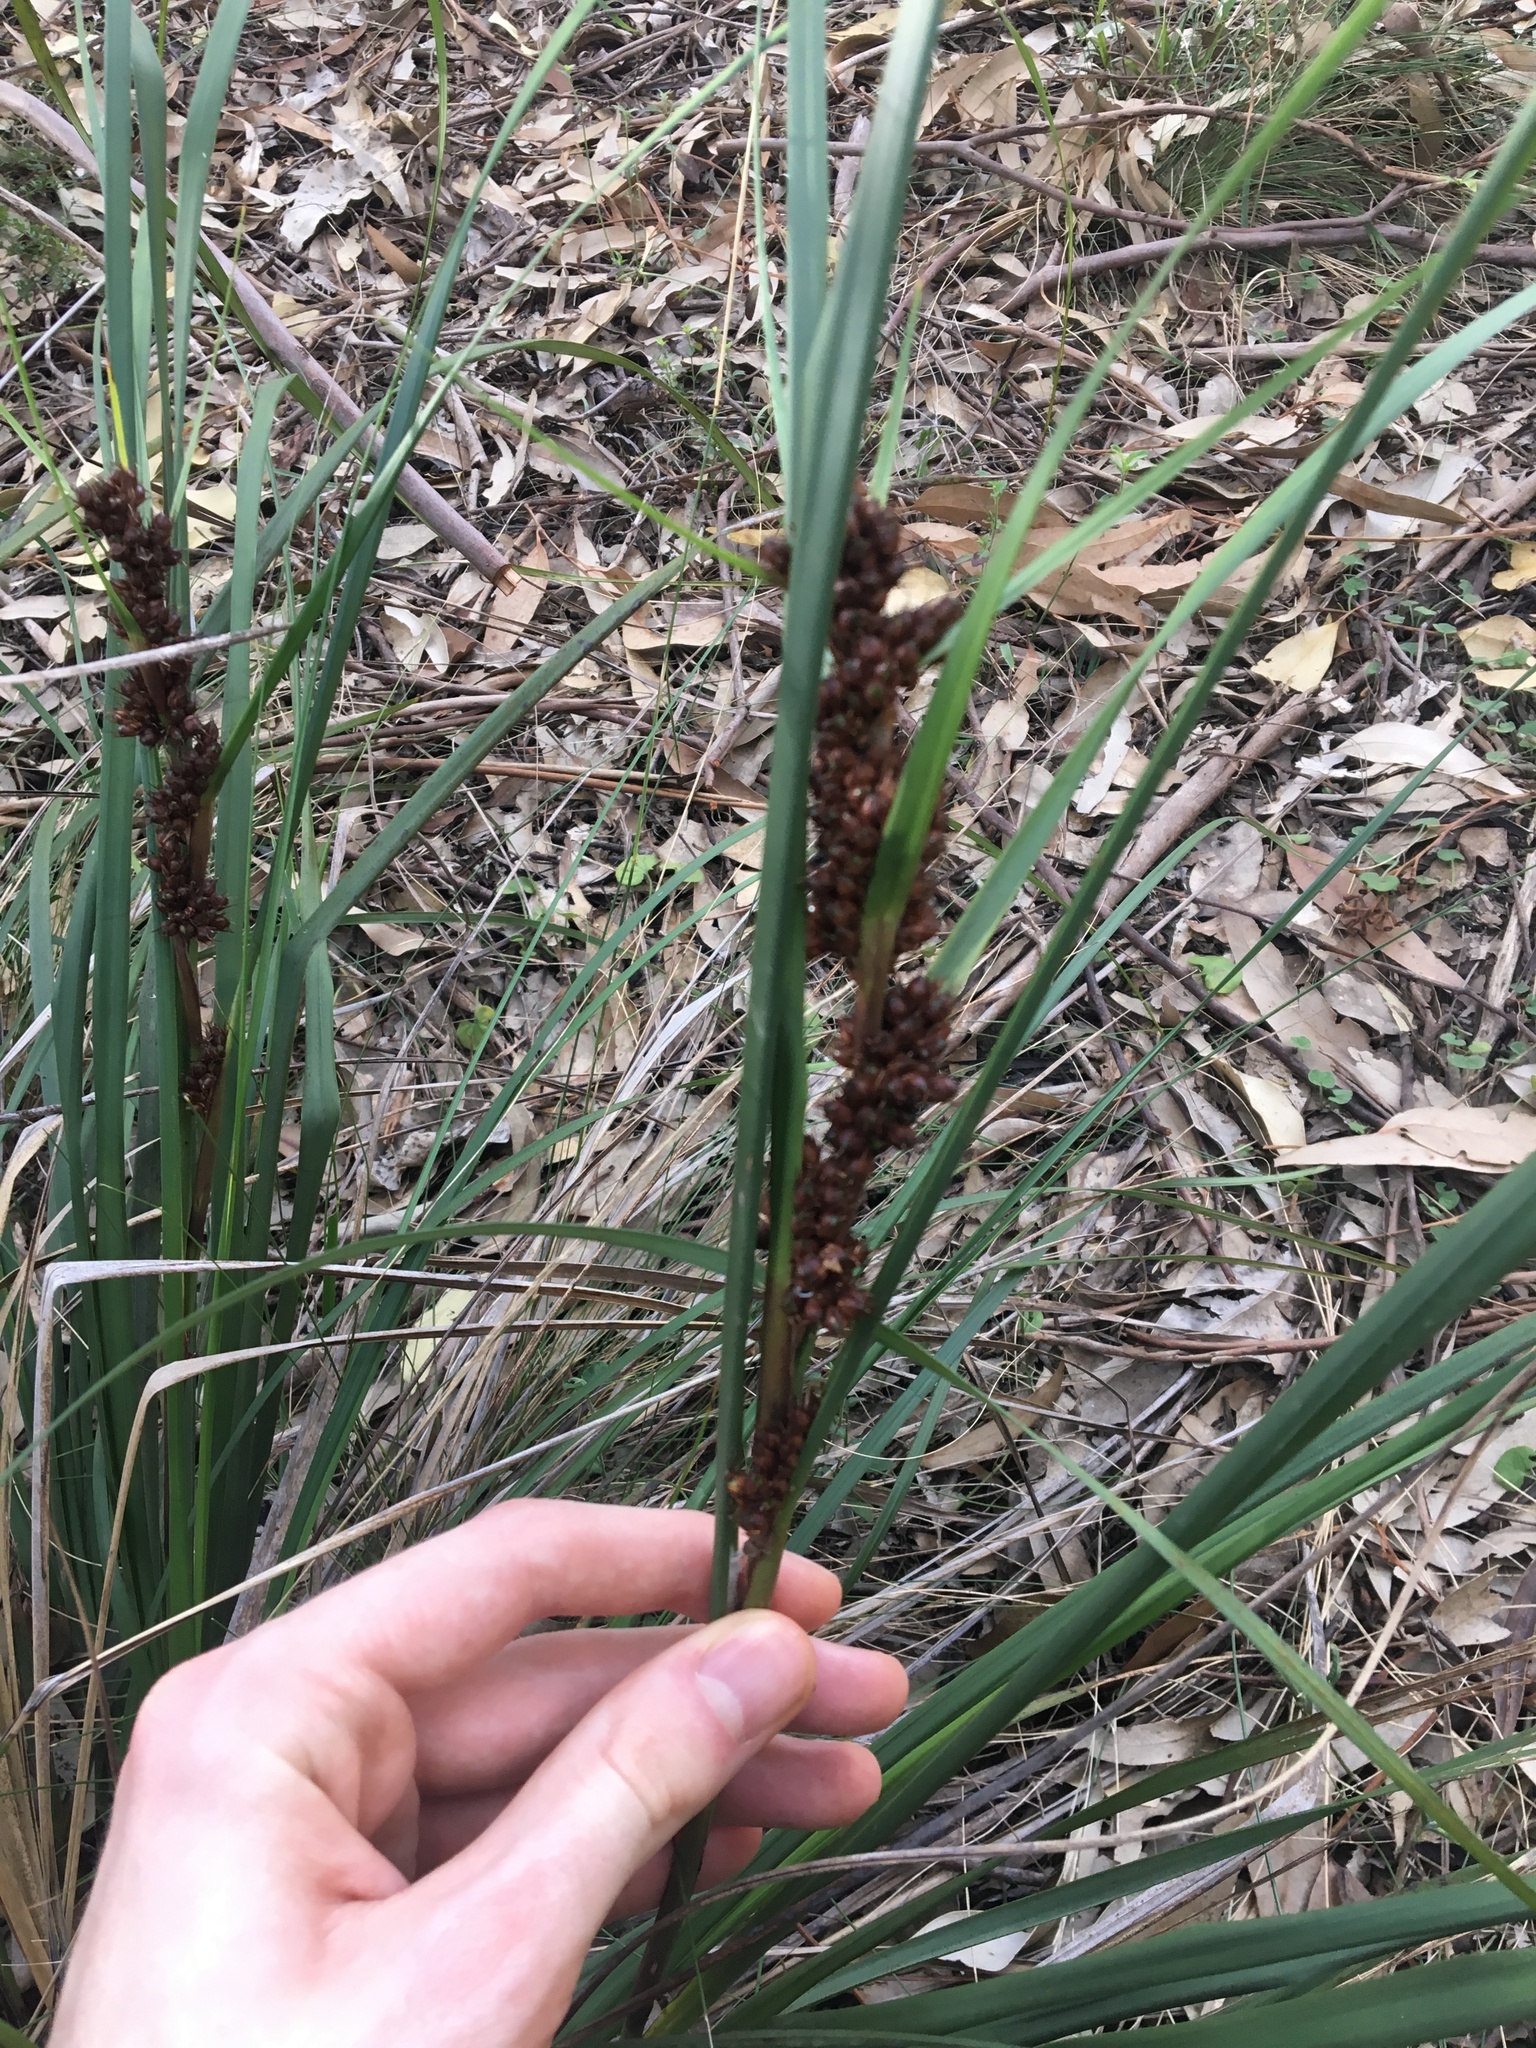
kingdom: Plantae
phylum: Tracheophyta
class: Liliopsida
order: Poales
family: Cyperaceae
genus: Gahnia
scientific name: Gahnia aspera
